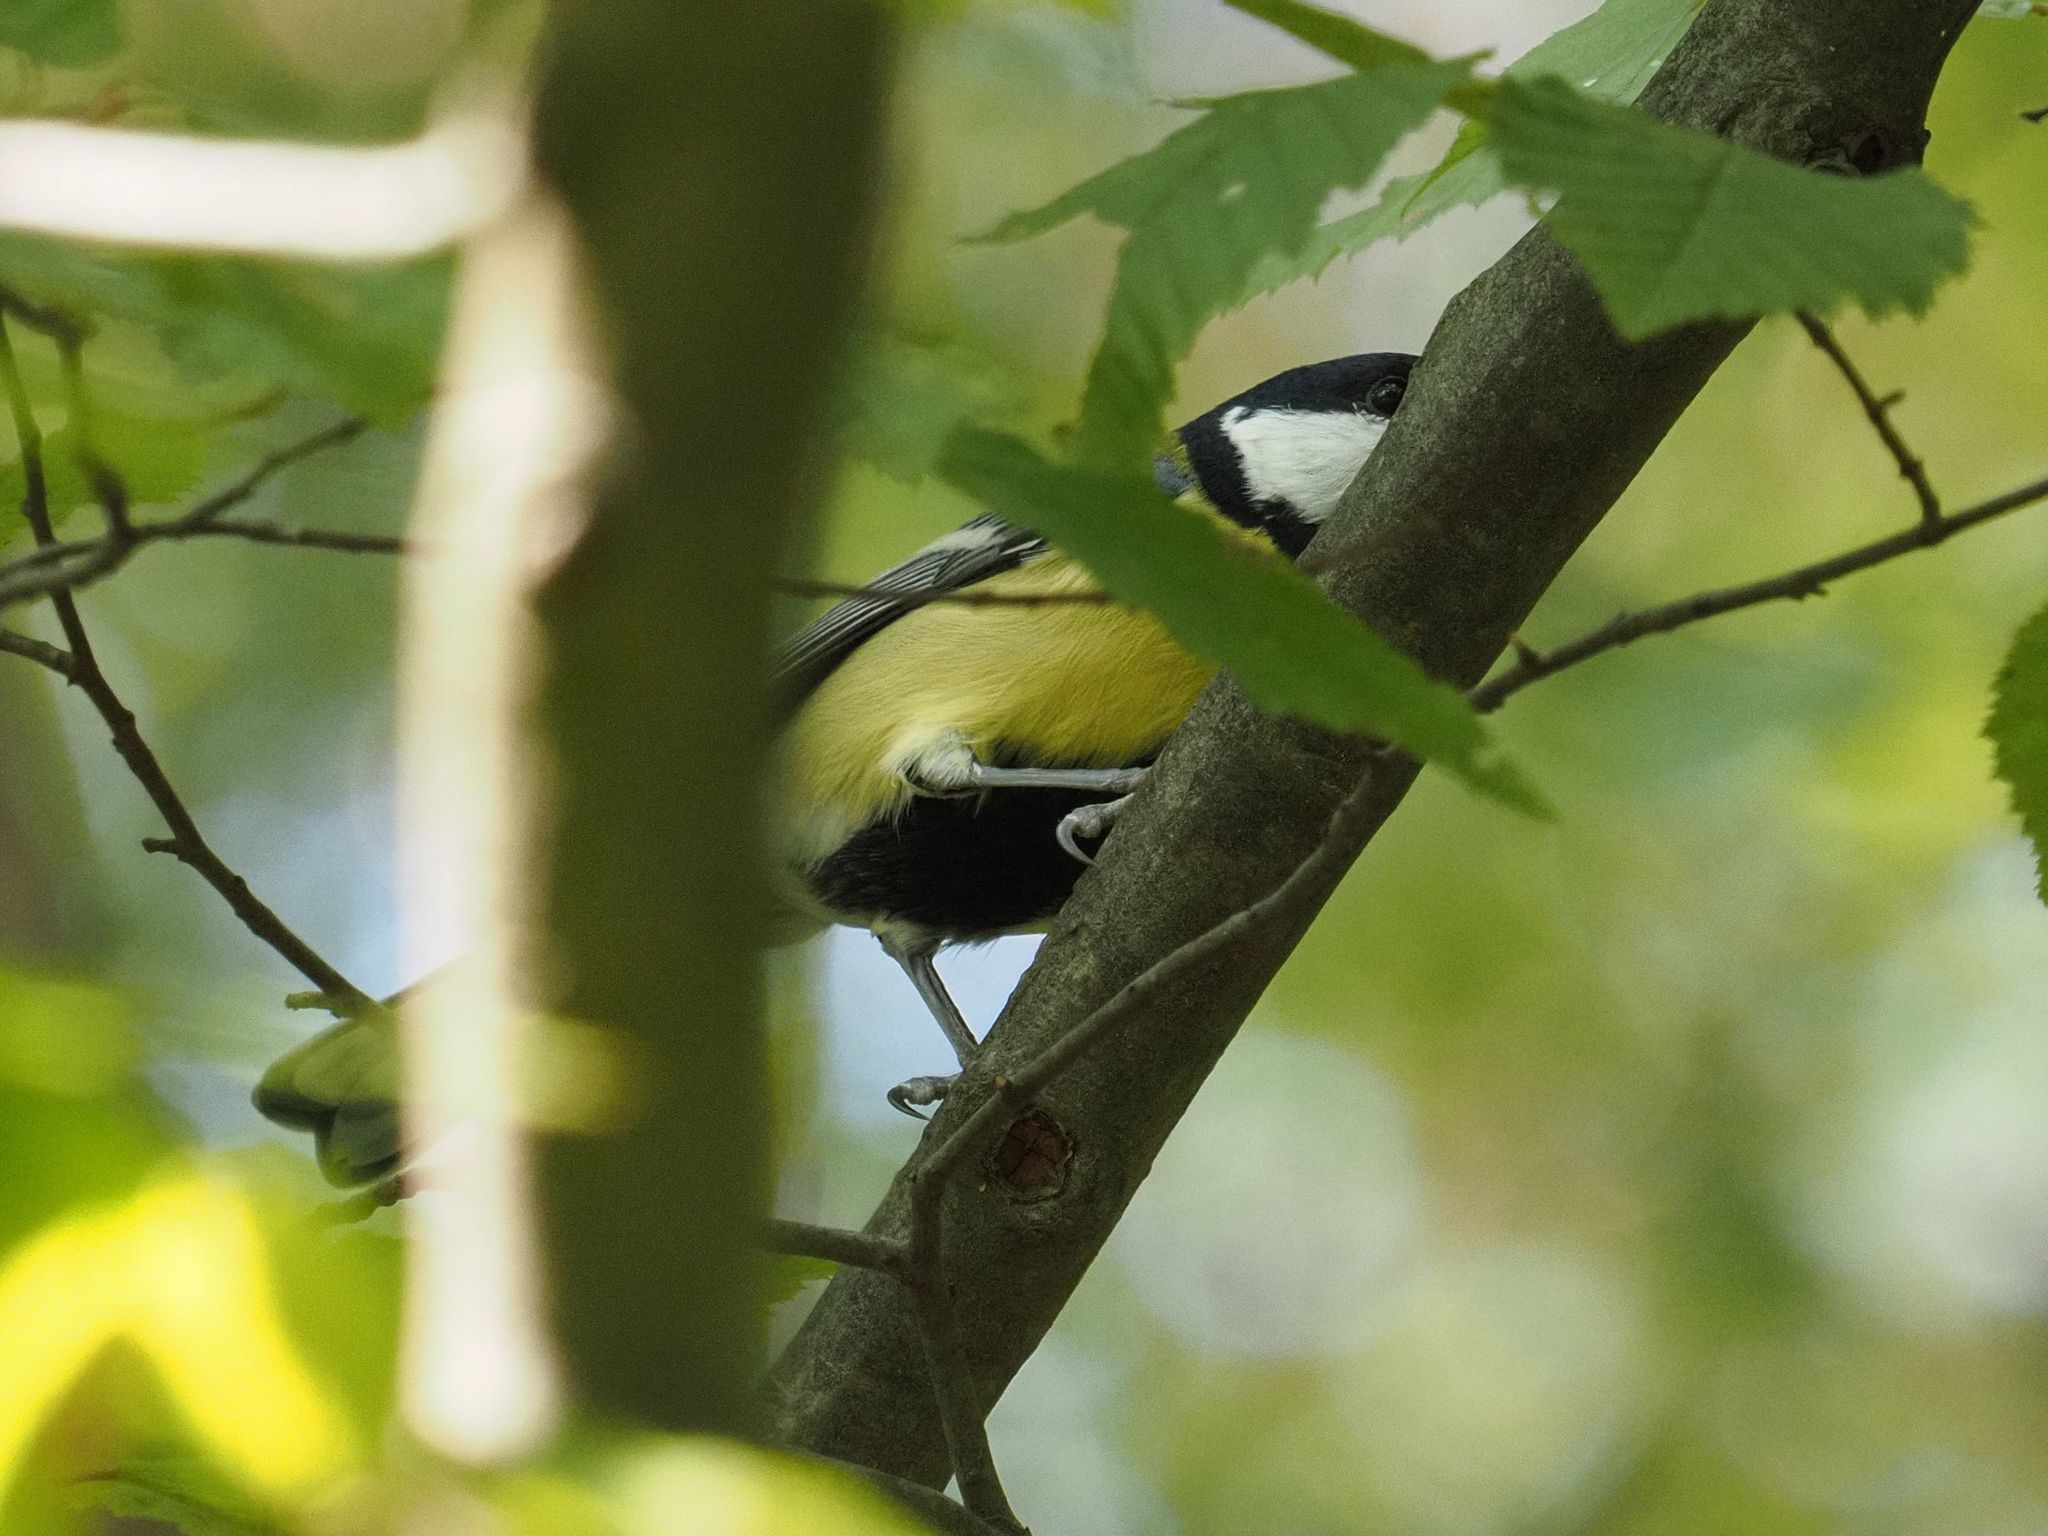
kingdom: Animalia
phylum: Chordata
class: Aves
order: Passeriformes
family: Paridae
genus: Parus
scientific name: Parus major
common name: Great tit
